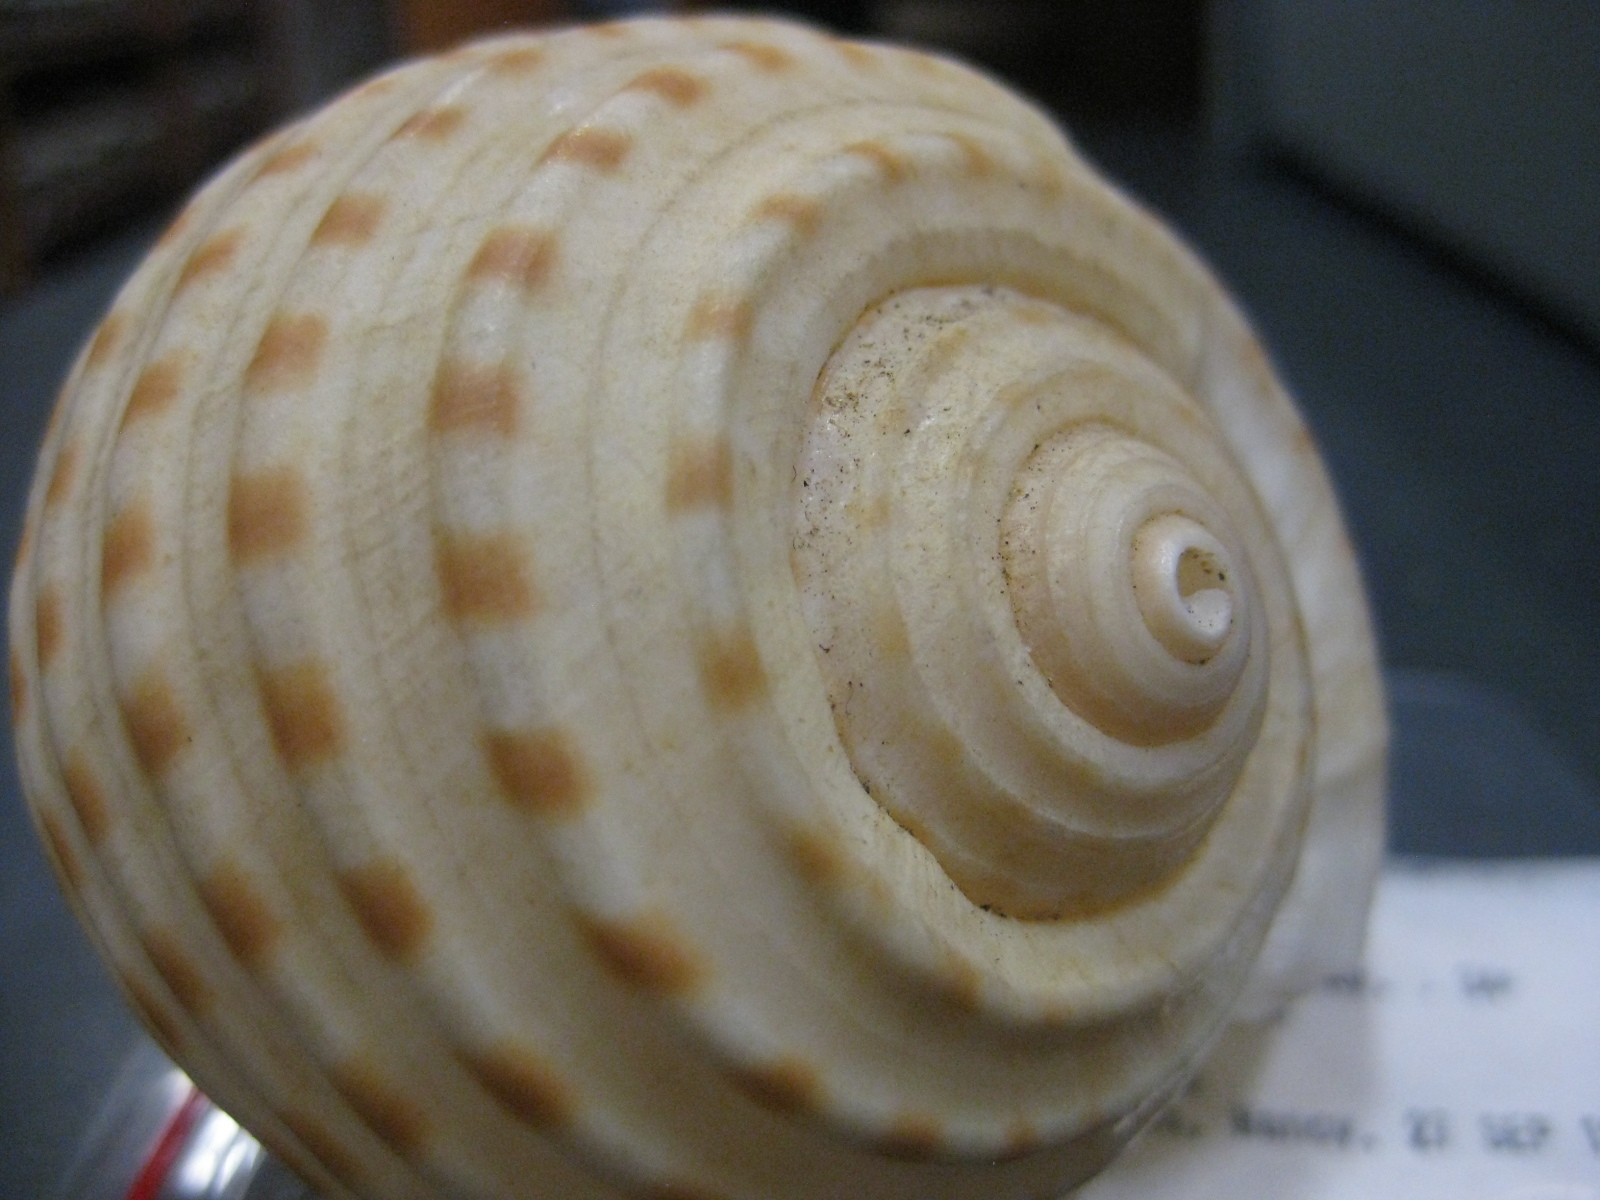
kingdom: Animalia
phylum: Mollusca
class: Gastropoda
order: Littorinimorpha
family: Tonnidae
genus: Tonna
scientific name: Tonna dolium
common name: Spotted tun
